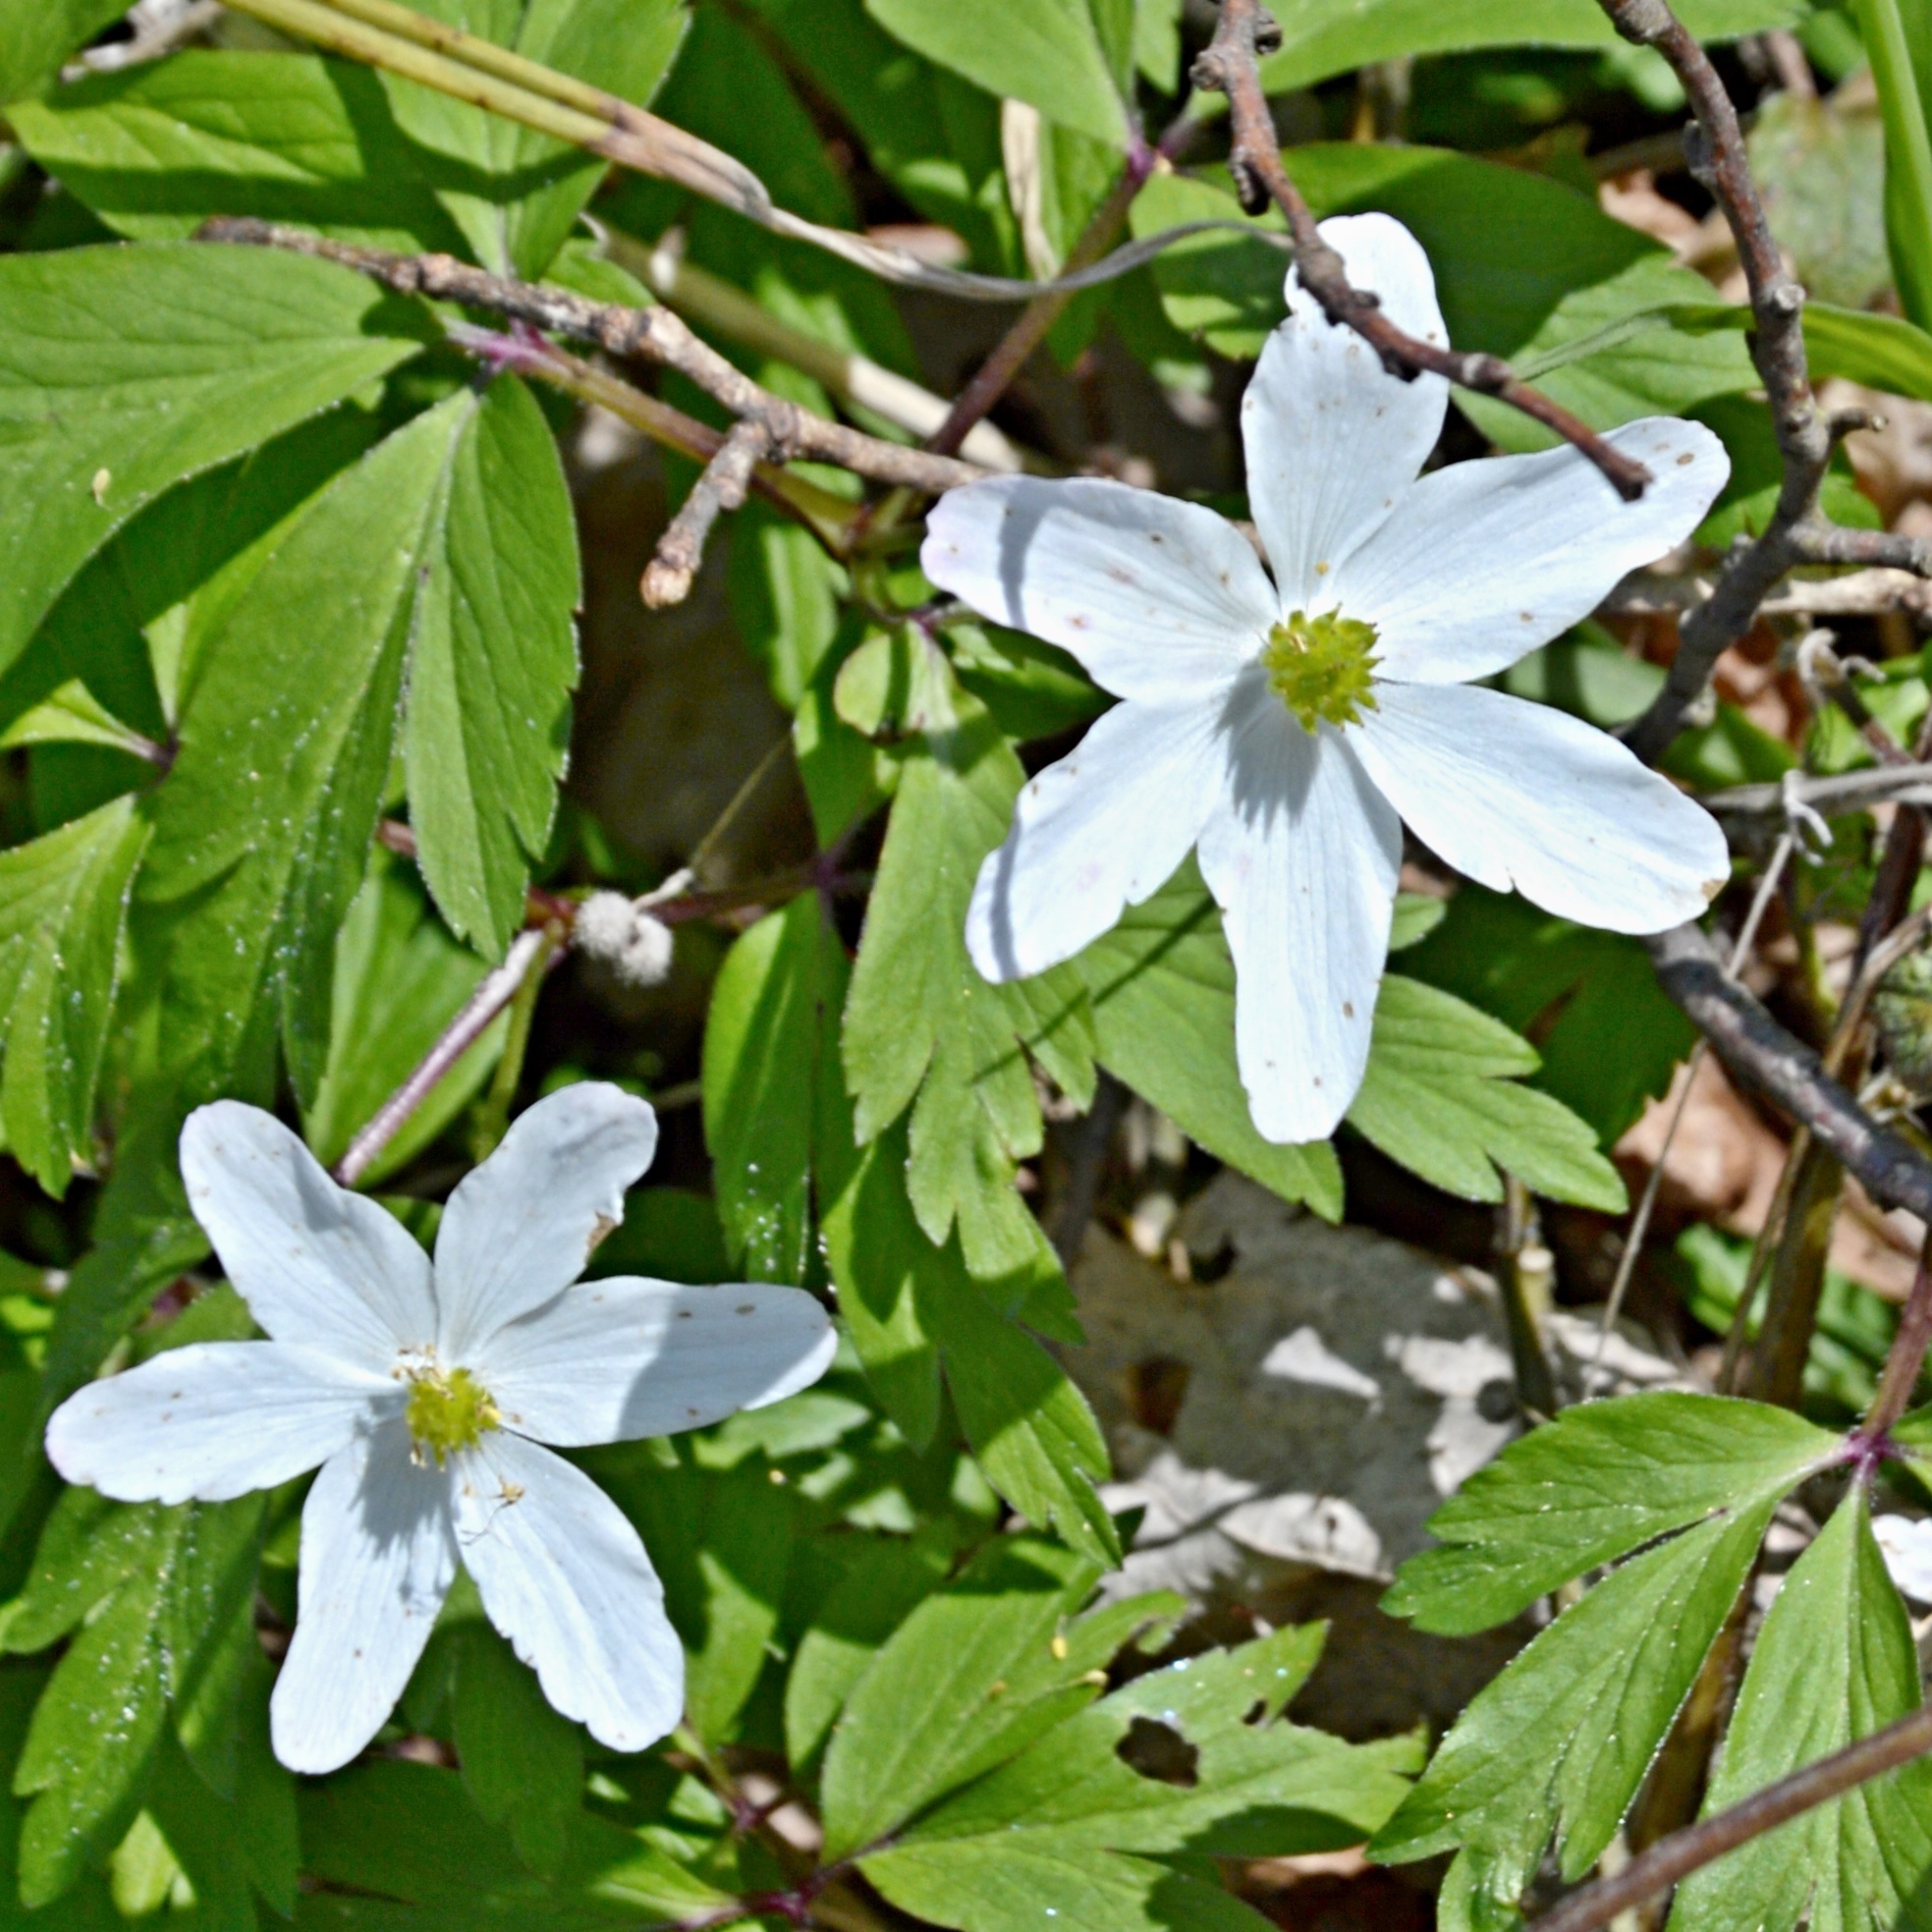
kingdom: Plantae
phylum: Tracheophyta
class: Magnoliopsida
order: Ranunculales
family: Ranunculaceae
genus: Anemone
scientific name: Anemone nemorosa
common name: Wood anemone
